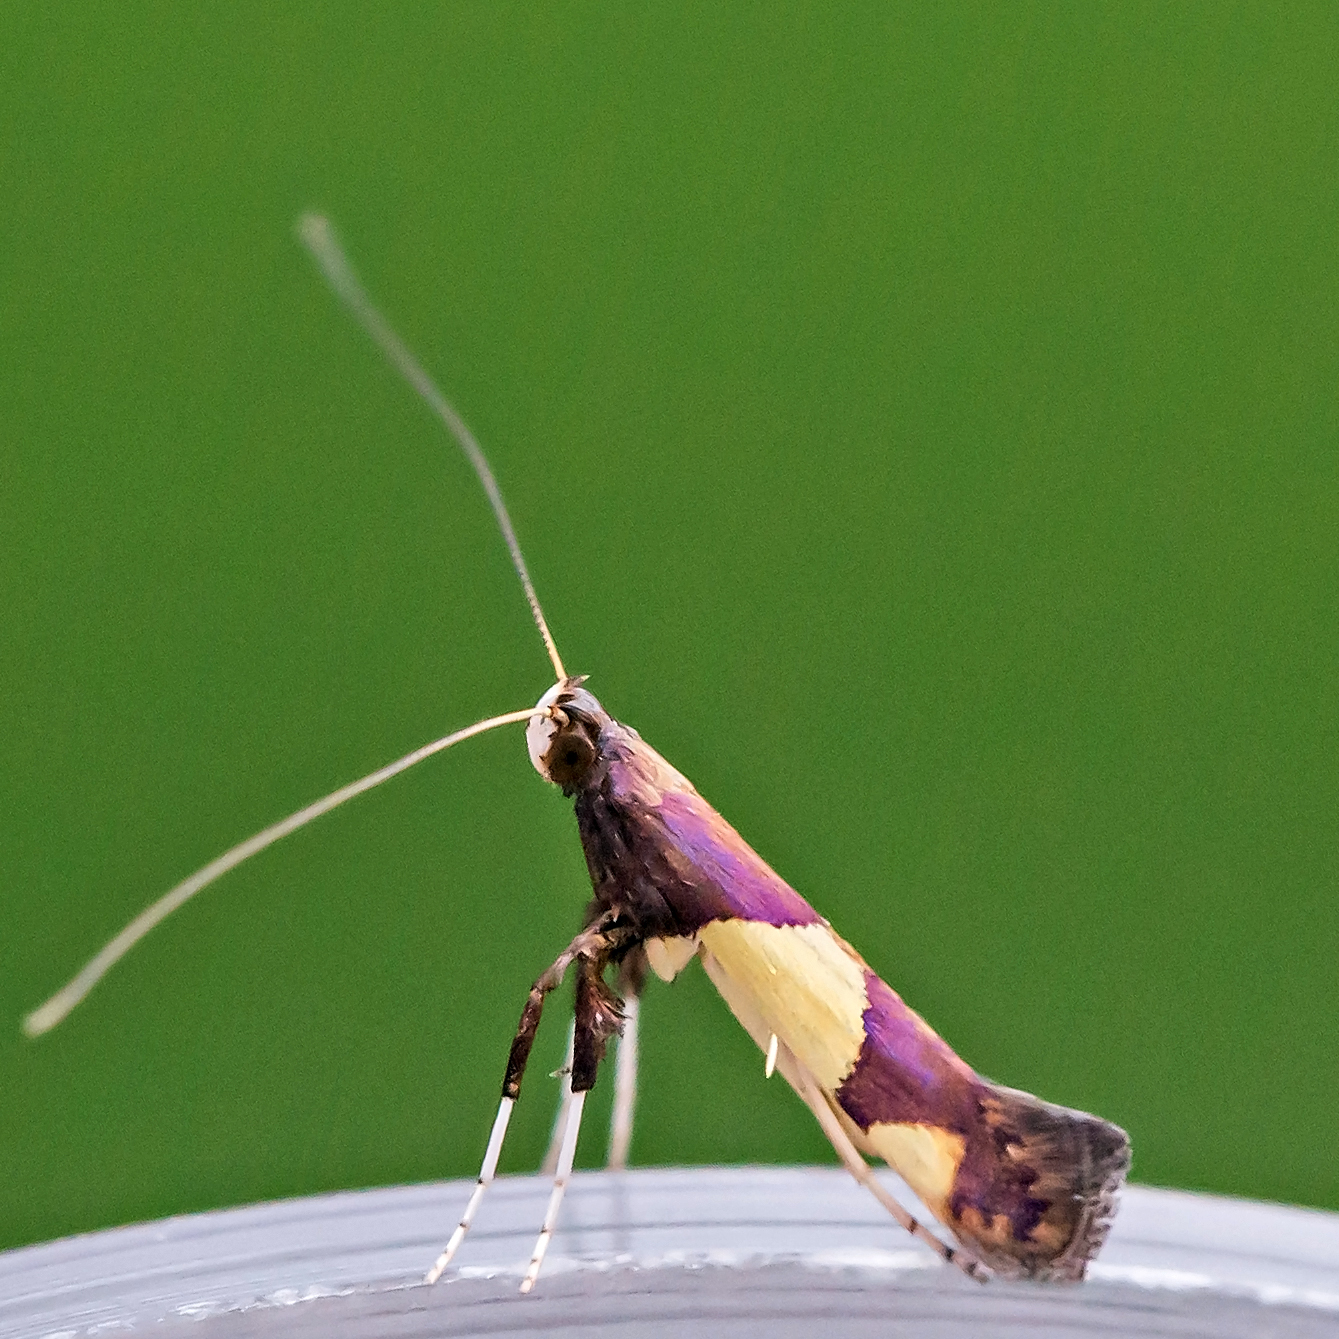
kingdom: Animalia
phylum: Arthropoda
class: Insecta
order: Lepidoptera
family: Gracillariidae
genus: Caloptilia
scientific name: Caloptilia bimaculatella
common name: Maple caloptilia moth
